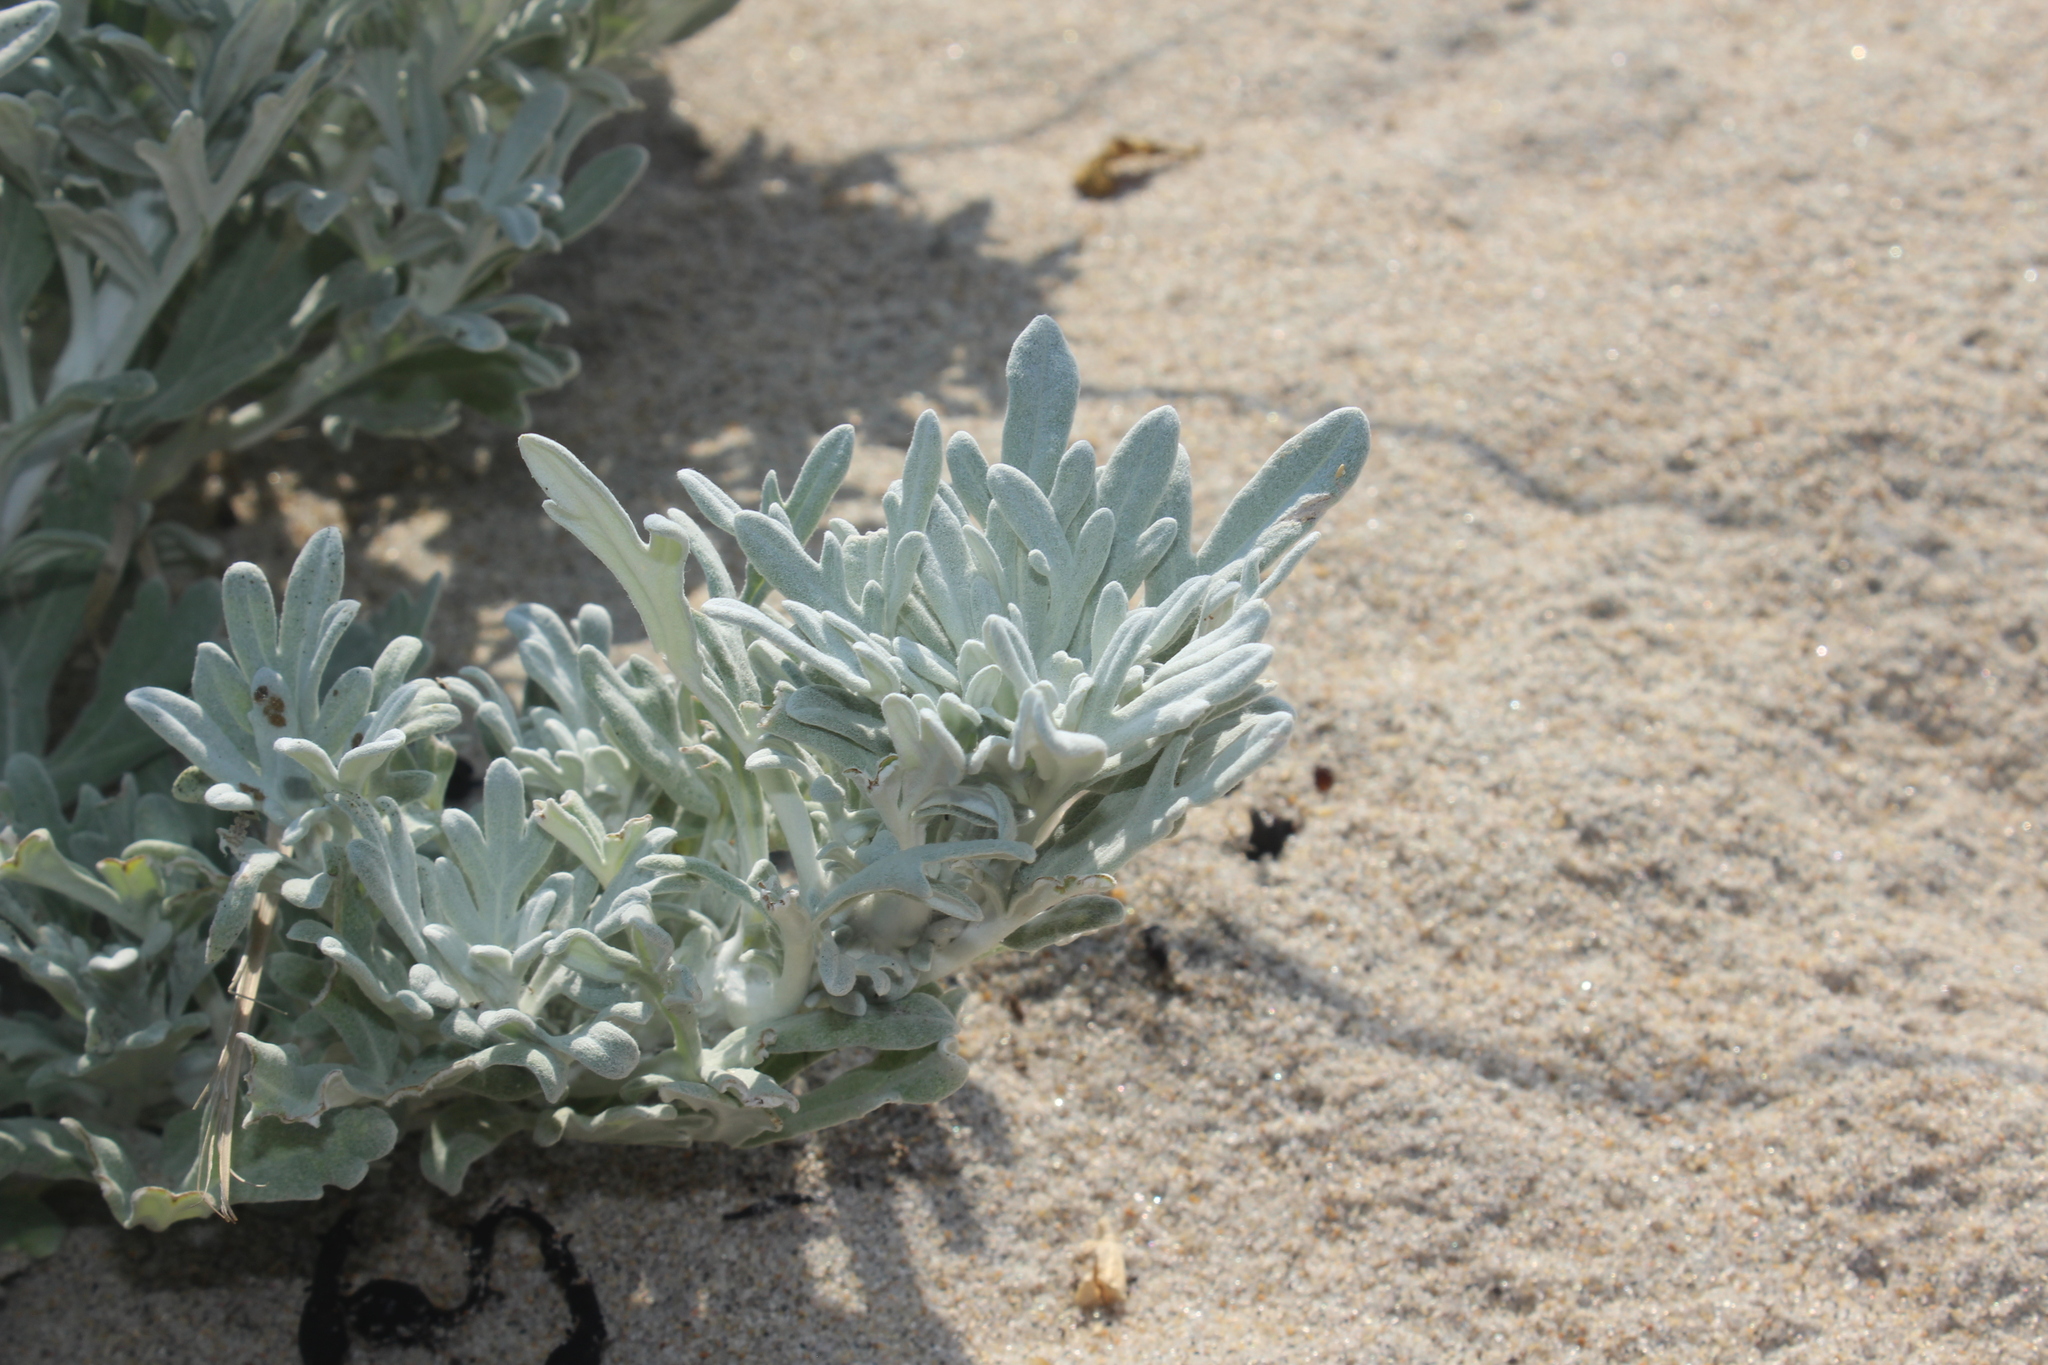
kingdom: Plantae
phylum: Tracheophyta
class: Magnoliopsida
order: Asterales
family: Asteraceae
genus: Artemisia
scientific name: Artemisia stelleriana
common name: Beach wormwood
